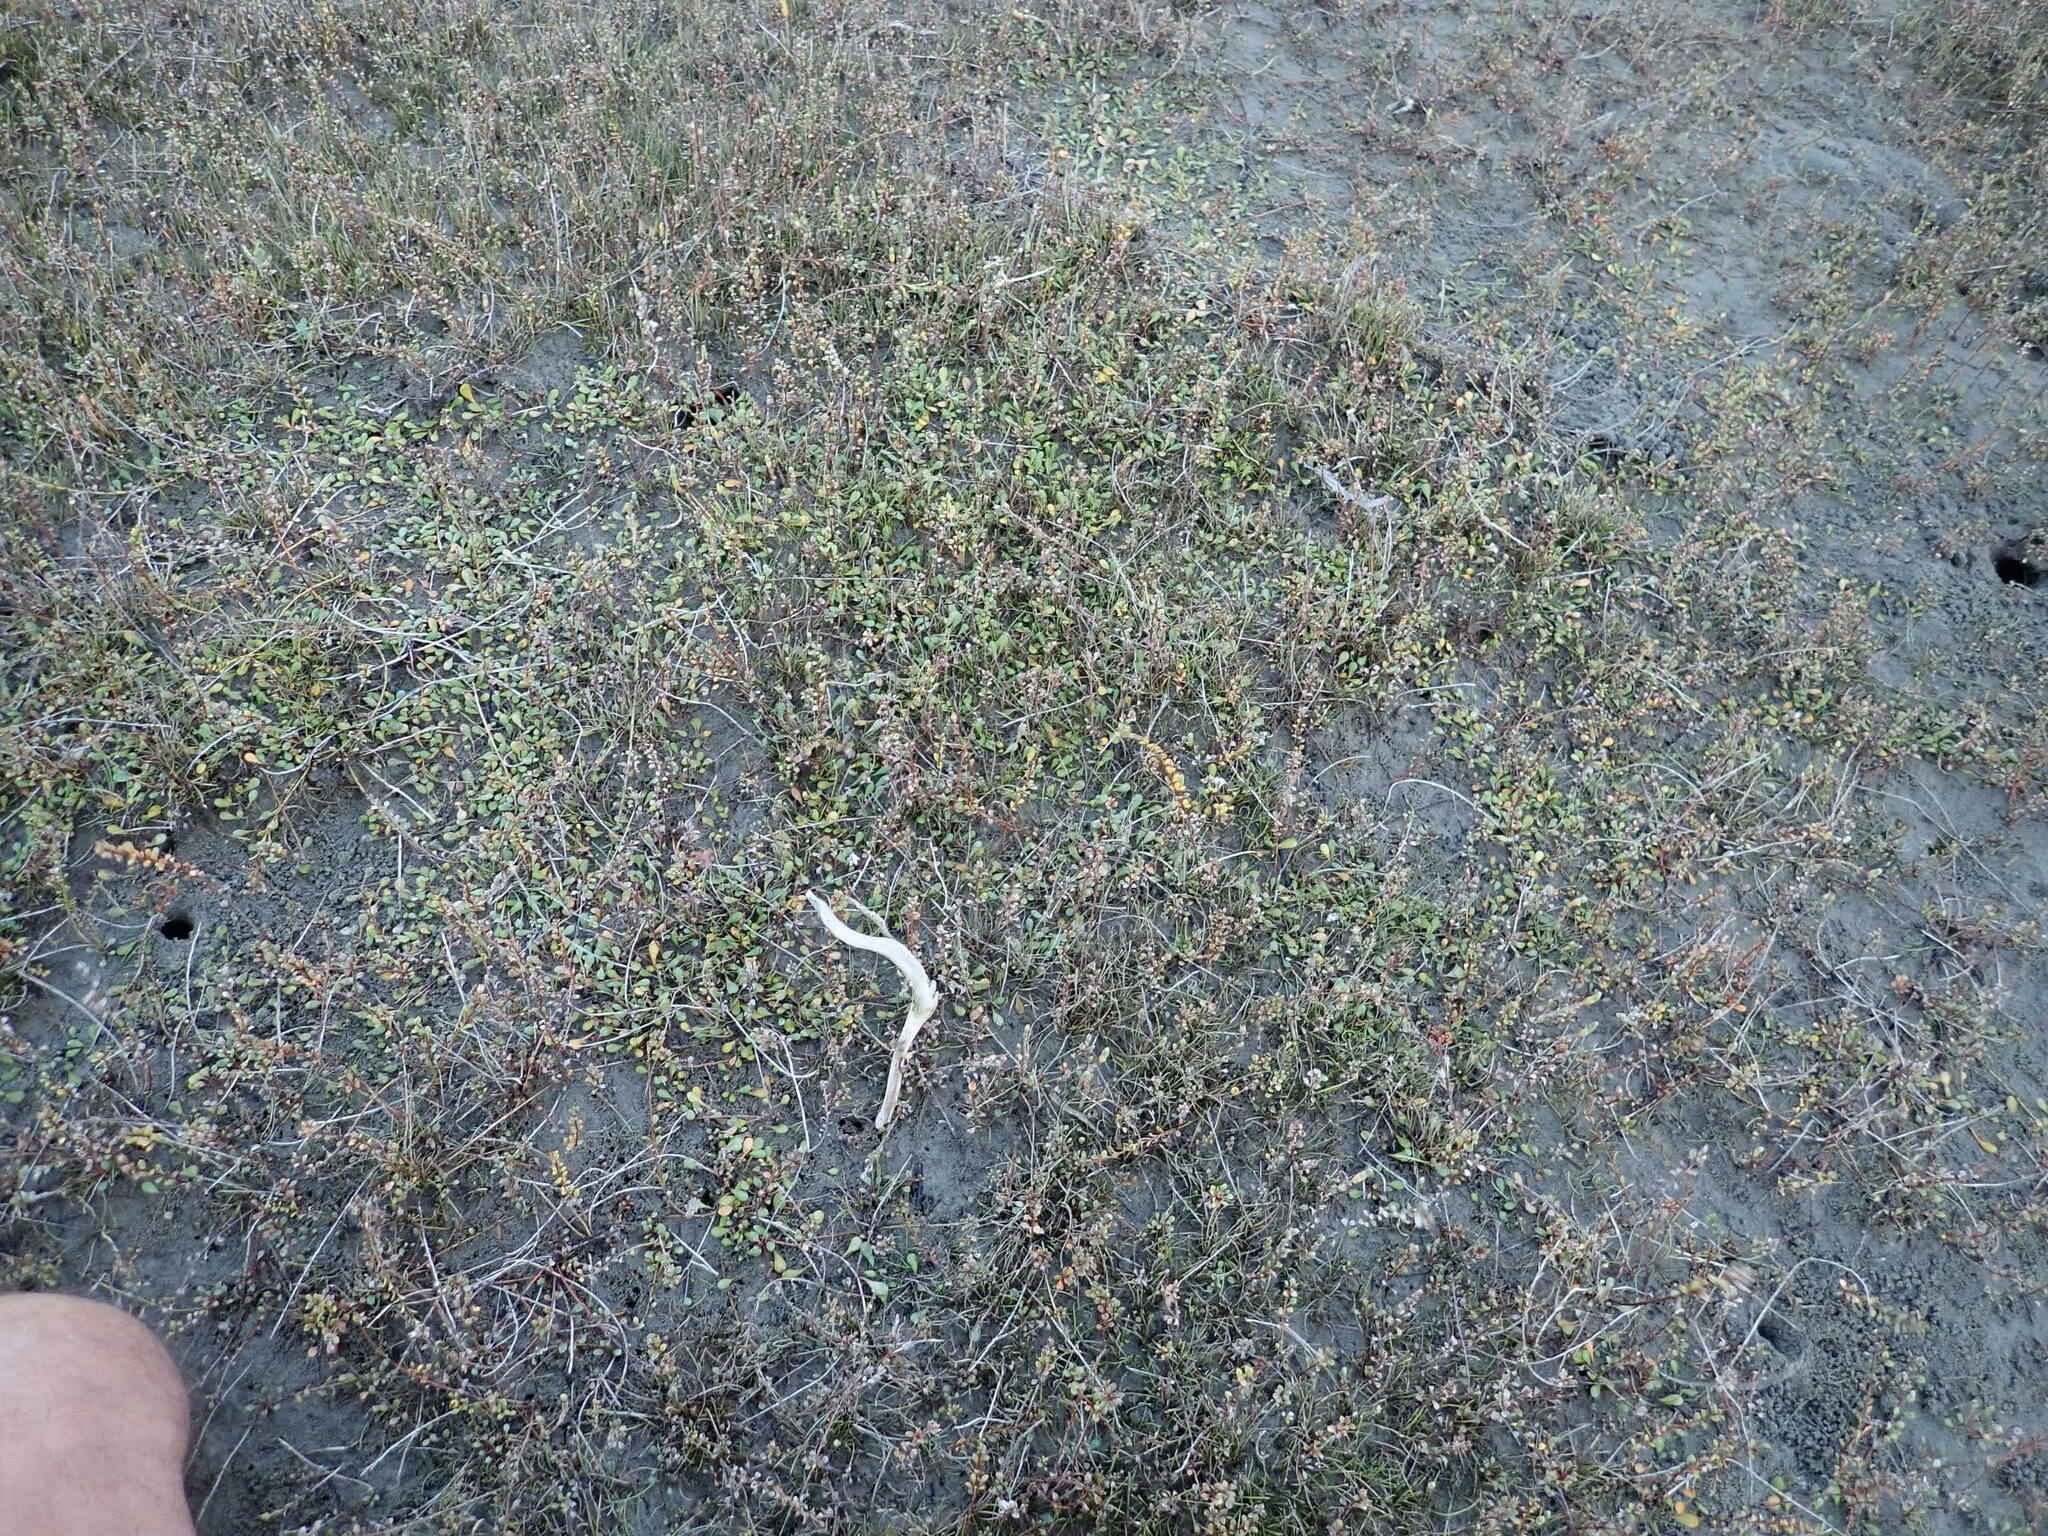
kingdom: Plantae
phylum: Tracheophyta
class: Magnoliopsida
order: Asterales
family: Goodeniaceae
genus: Goodenia
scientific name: Goodenia radicans
